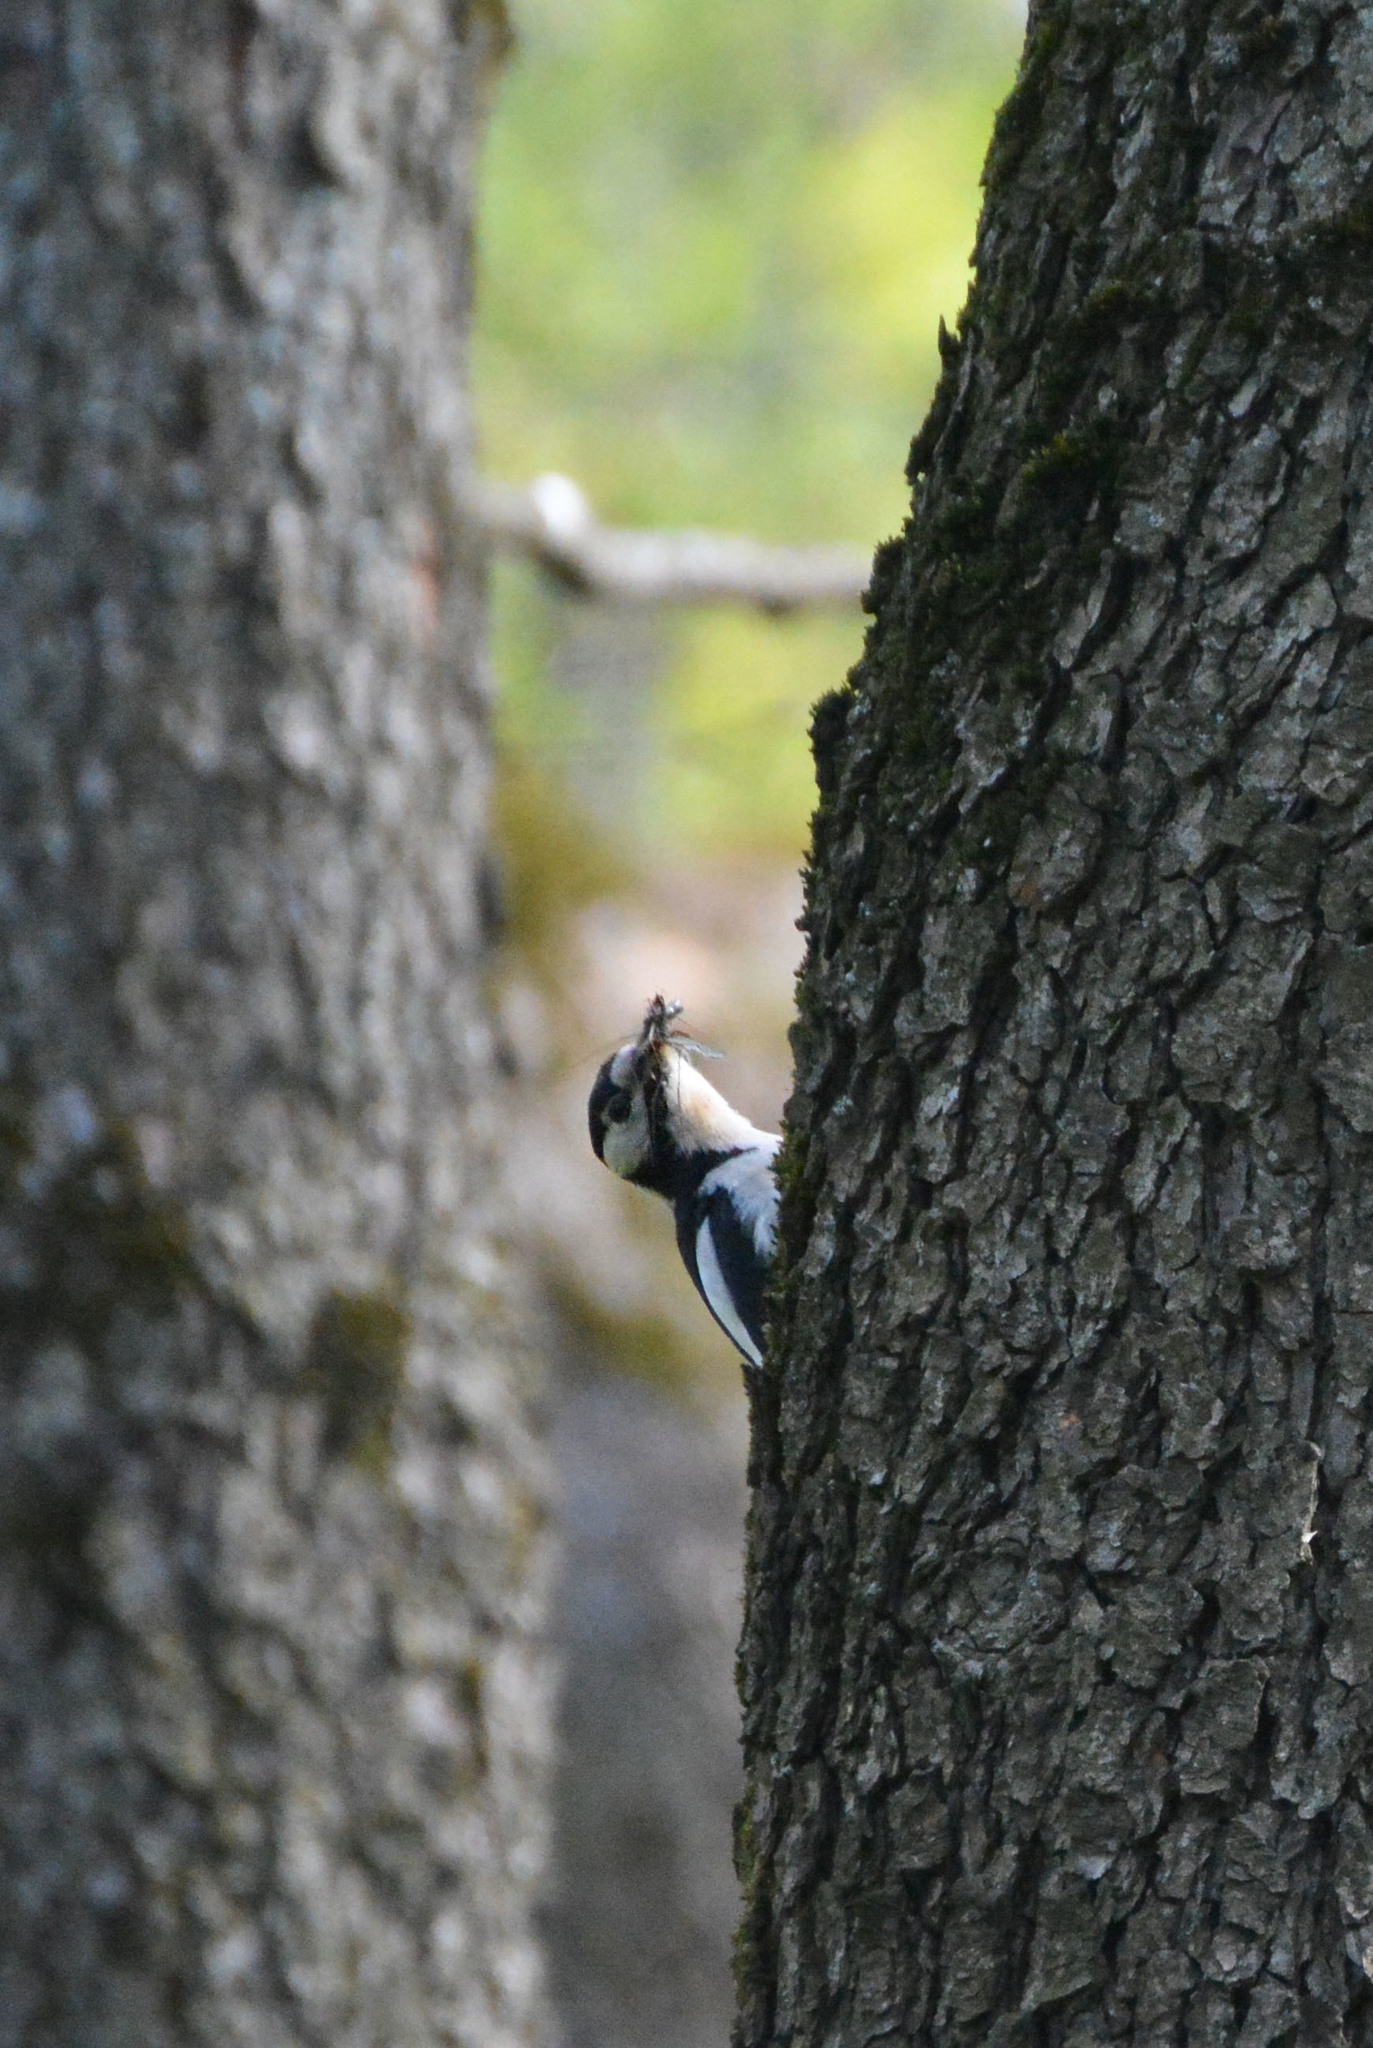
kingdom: Animalia
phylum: Chordata
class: Aves
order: Piciformes
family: Picidae
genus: Dendrocopos
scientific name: Dendrocopos major
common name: Great spotted woodpecker
